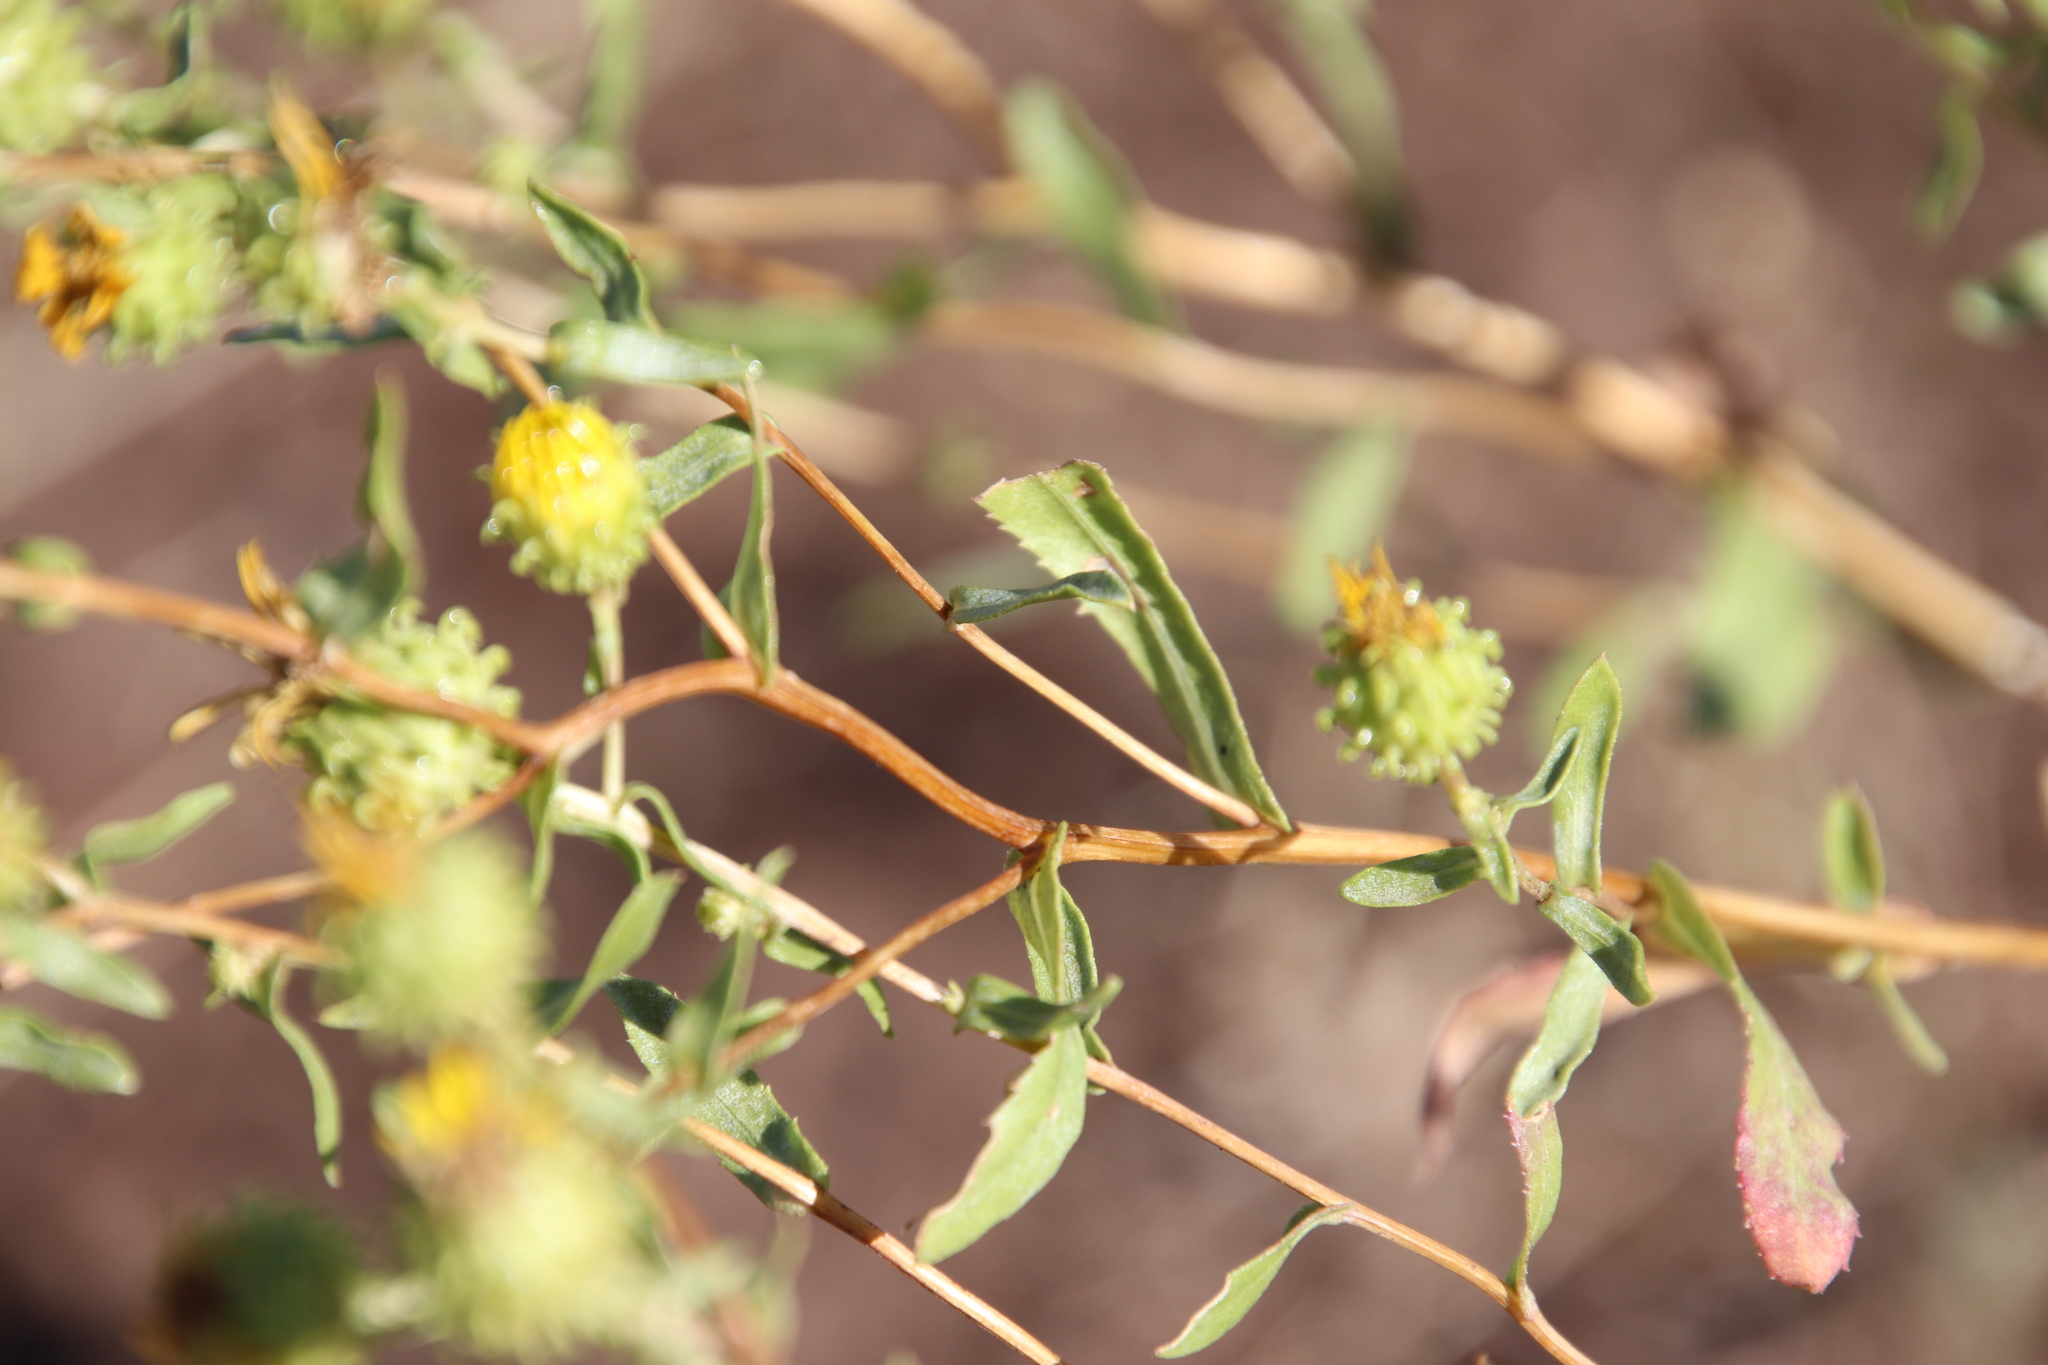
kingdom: Plantae
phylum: Tracheophyta
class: Magnoliopsida
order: Asterales
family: Asteraceae
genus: Grindelia
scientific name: Grindelia squarrosa
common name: Curly-cup gumweed
